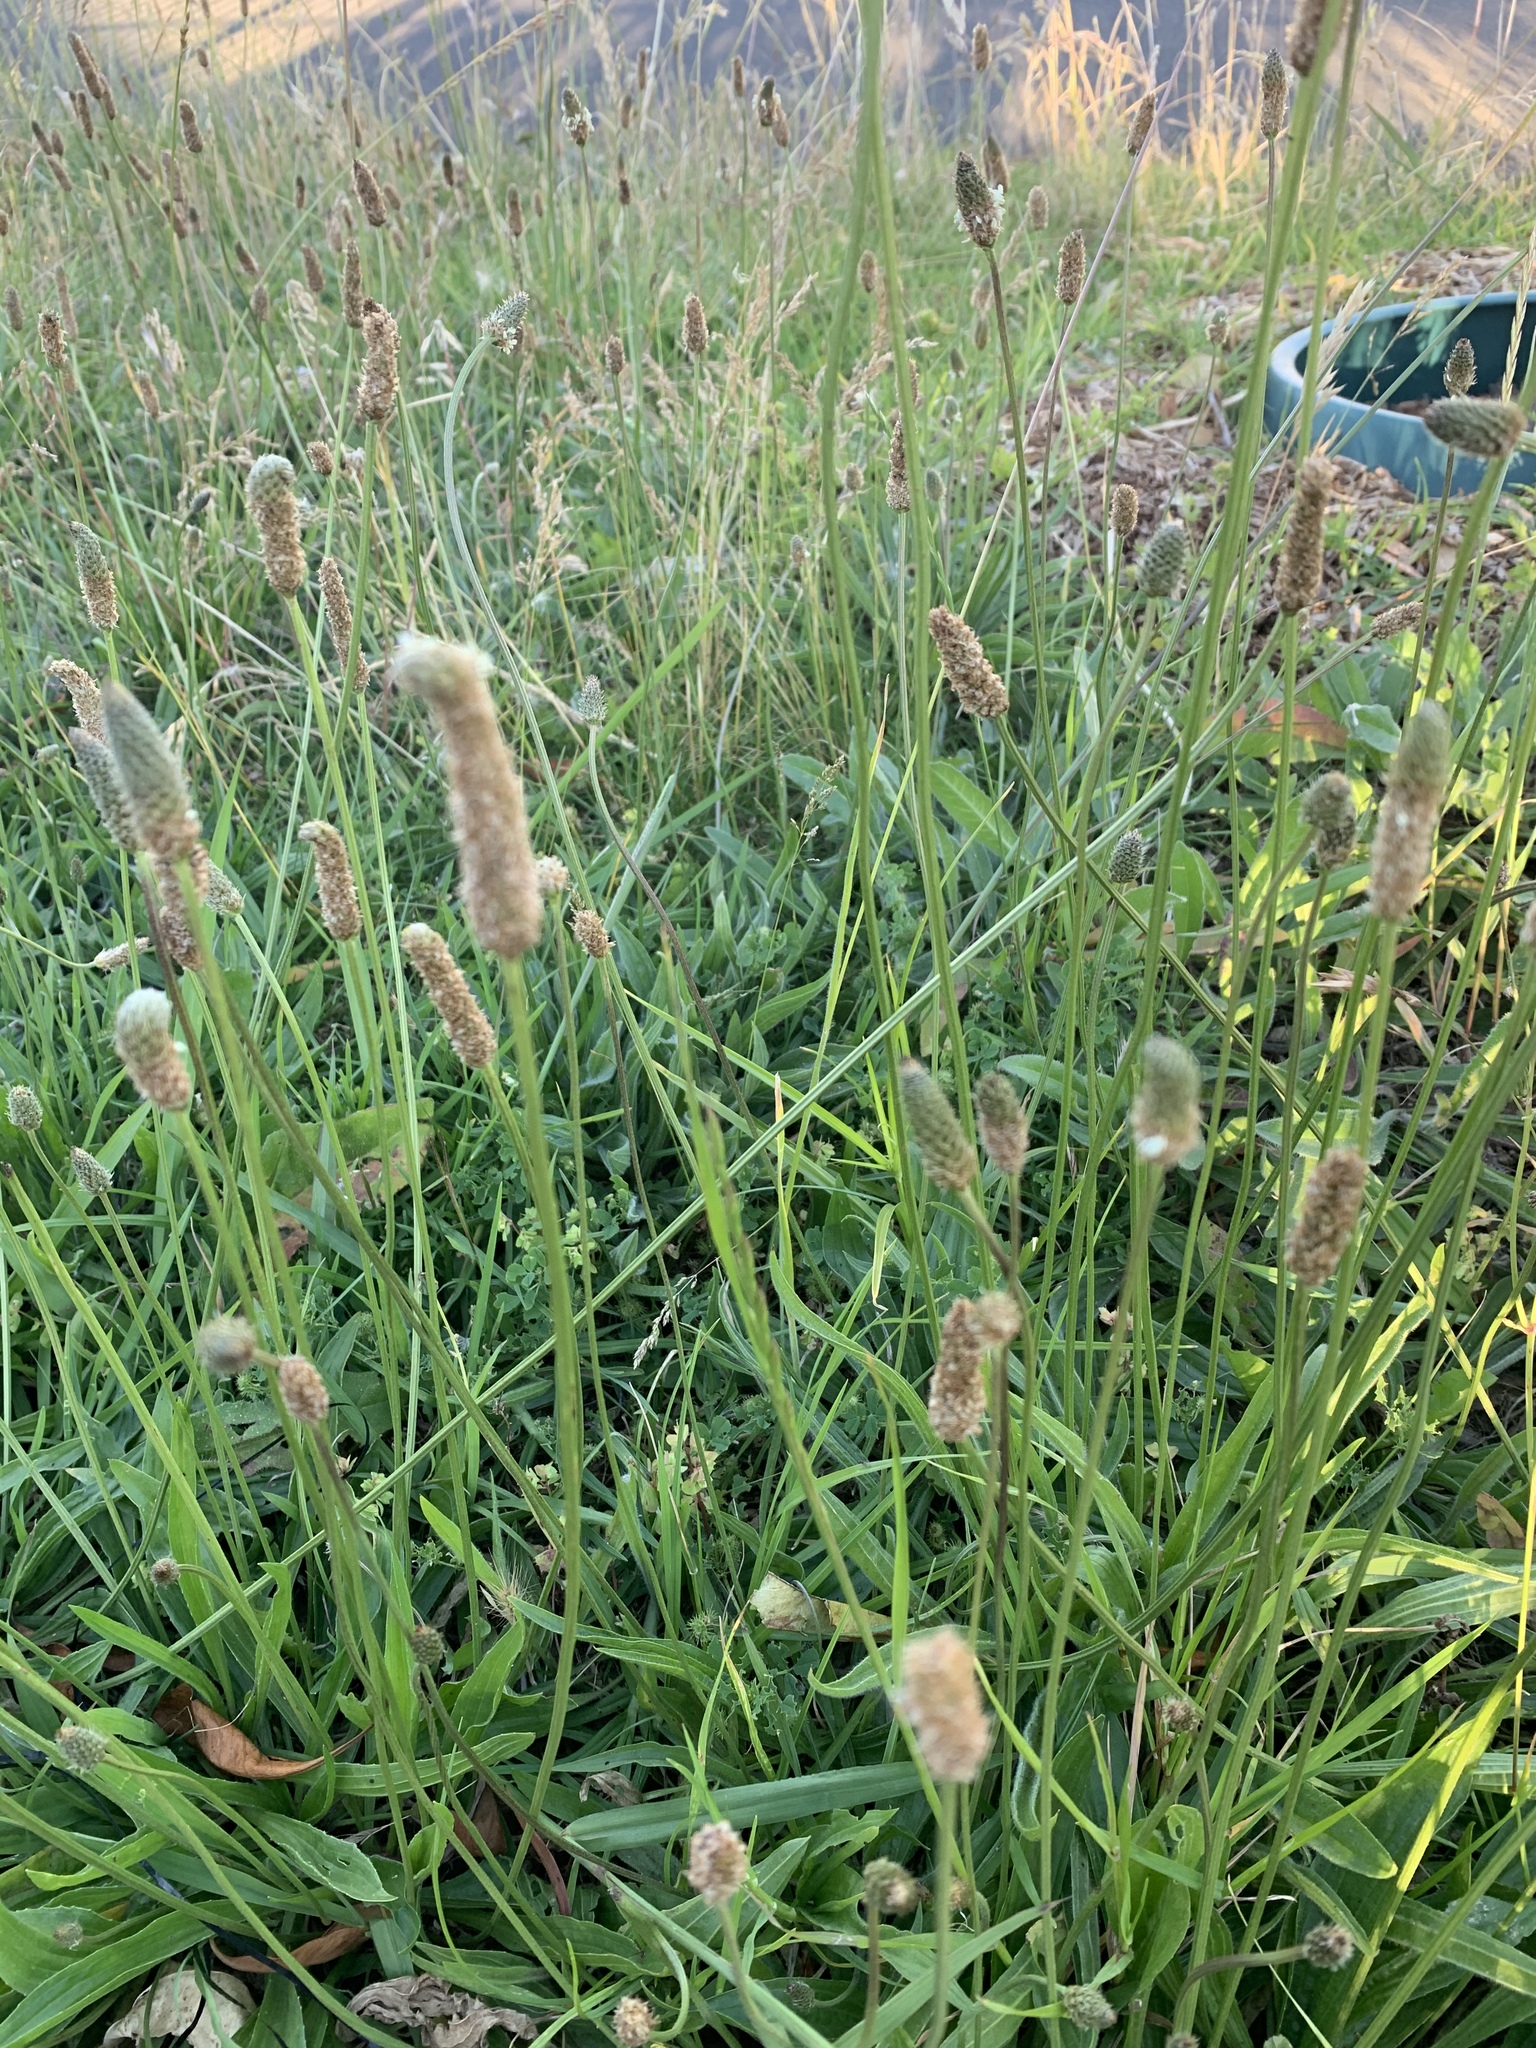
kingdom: Plantae
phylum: Tracheophyta
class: Magnoliopsida
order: Lamiales
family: Plantaginaceae
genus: Plantago
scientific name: Plantago lanceolata
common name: Ribwort plantain
